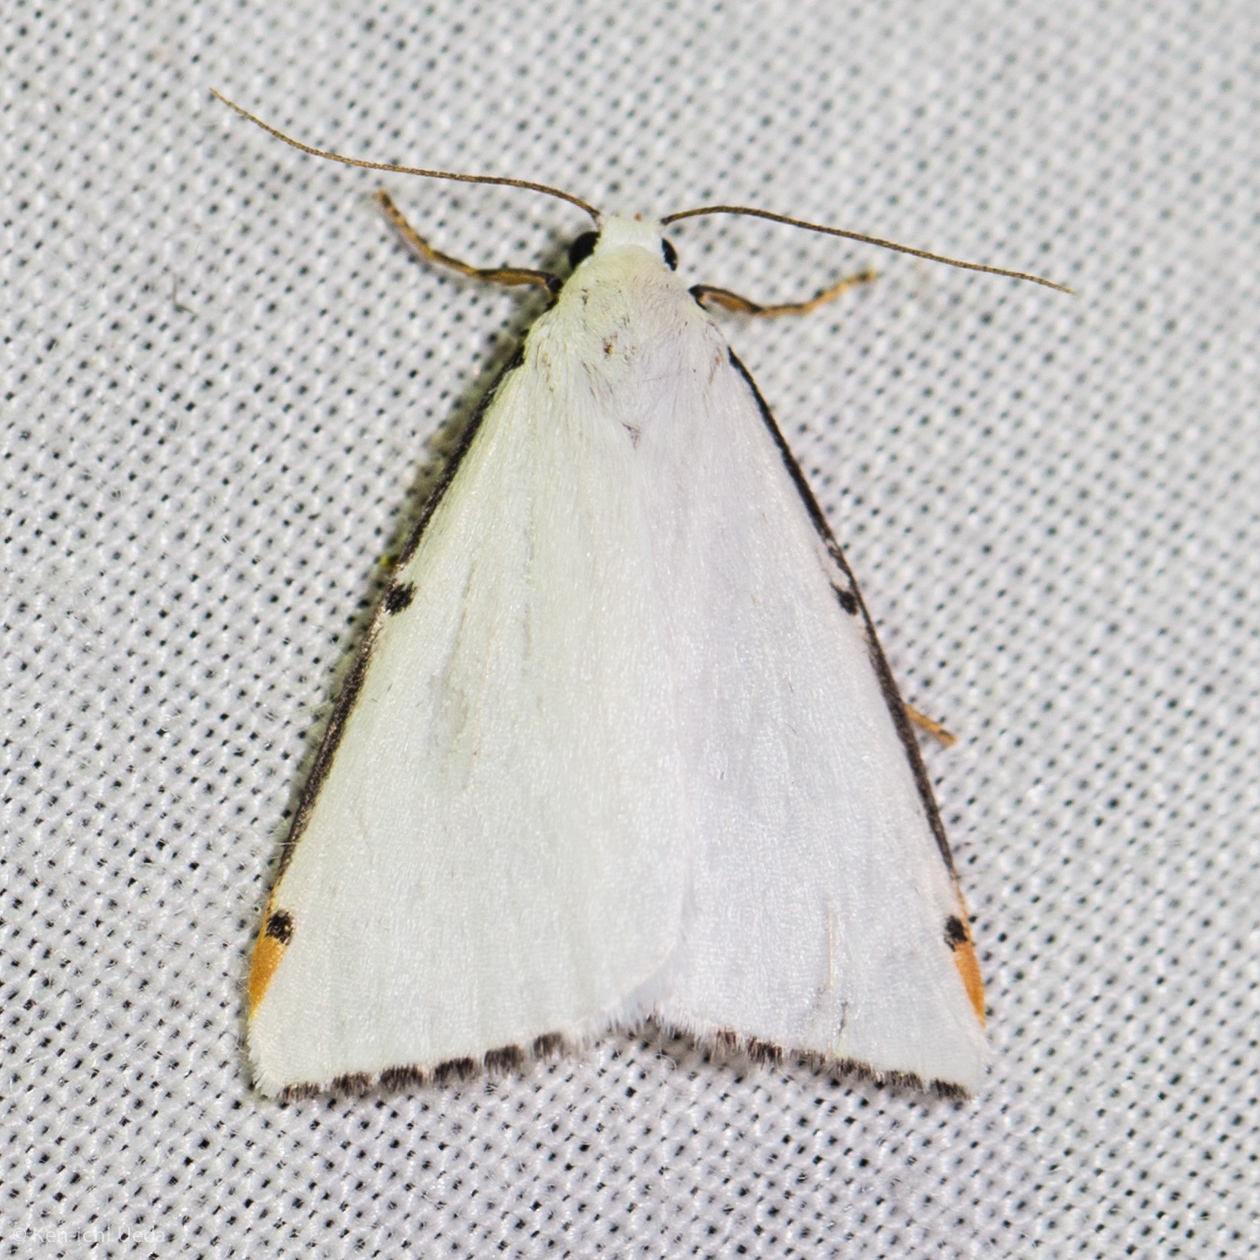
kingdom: Animalia
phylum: Arthropoda
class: Insecta
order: Lepidoptera
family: Erebidae
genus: Termessa
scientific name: Termessa nivosa
